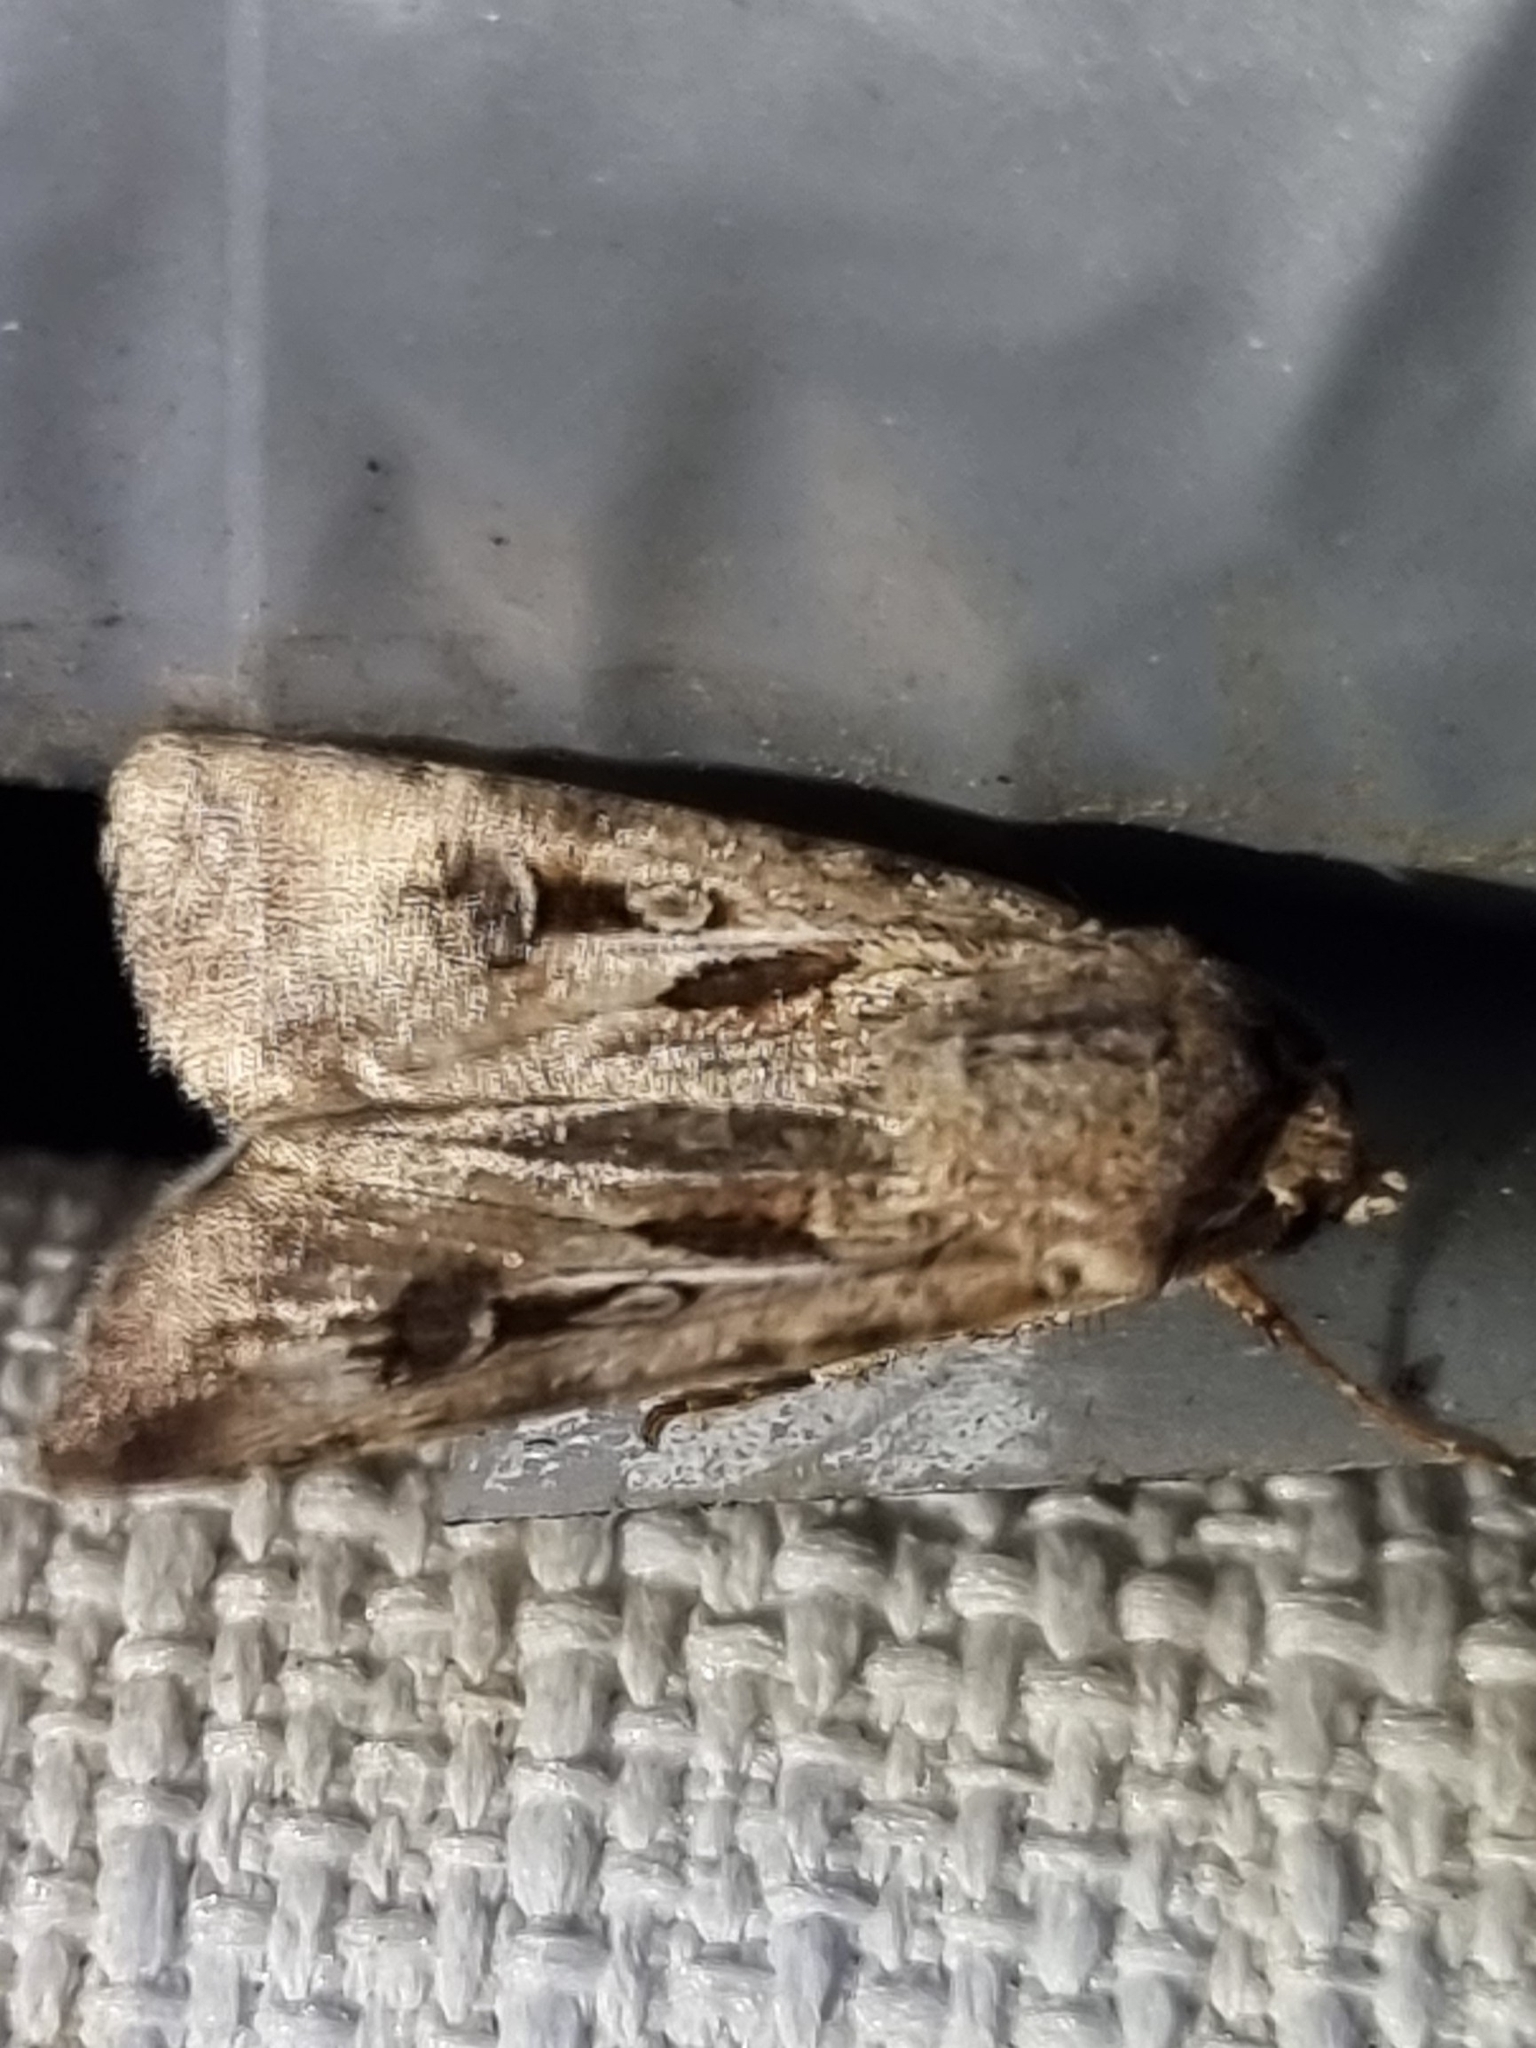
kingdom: Animalia
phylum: Arthropoda
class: Insecta
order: Lepidoptera
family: Noctuidae
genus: Agrotis
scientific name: Agrotis munda
